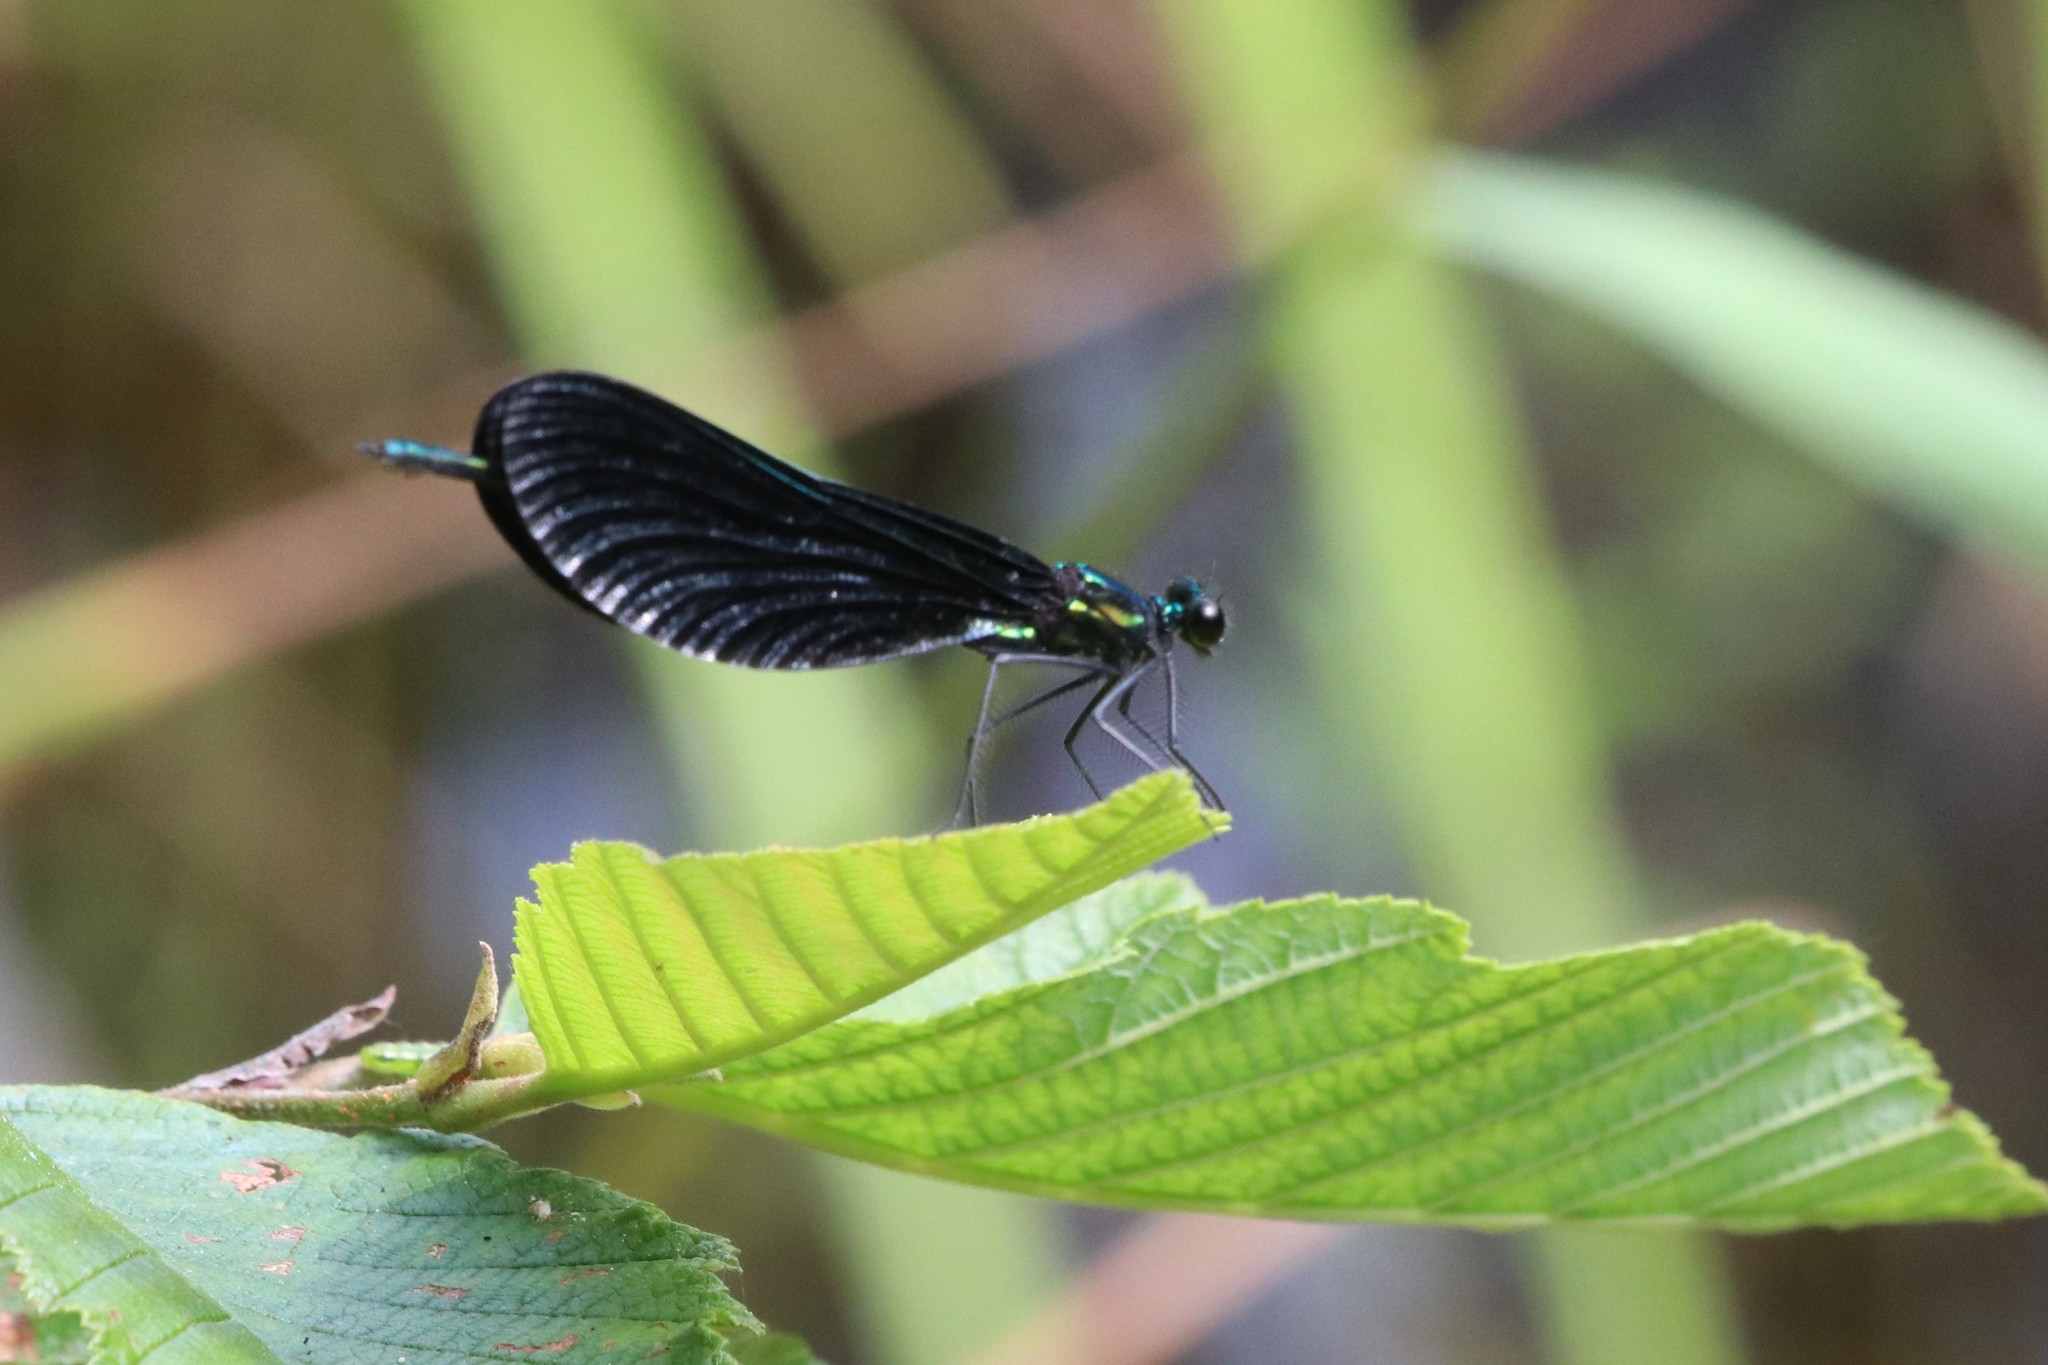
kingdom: Animalia
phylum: Arthropoda
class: Insecta
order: Odonata
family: Calopterygidae
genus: Calopteryx
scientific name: Calopteryx maculata
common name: Ebony jewelwing
